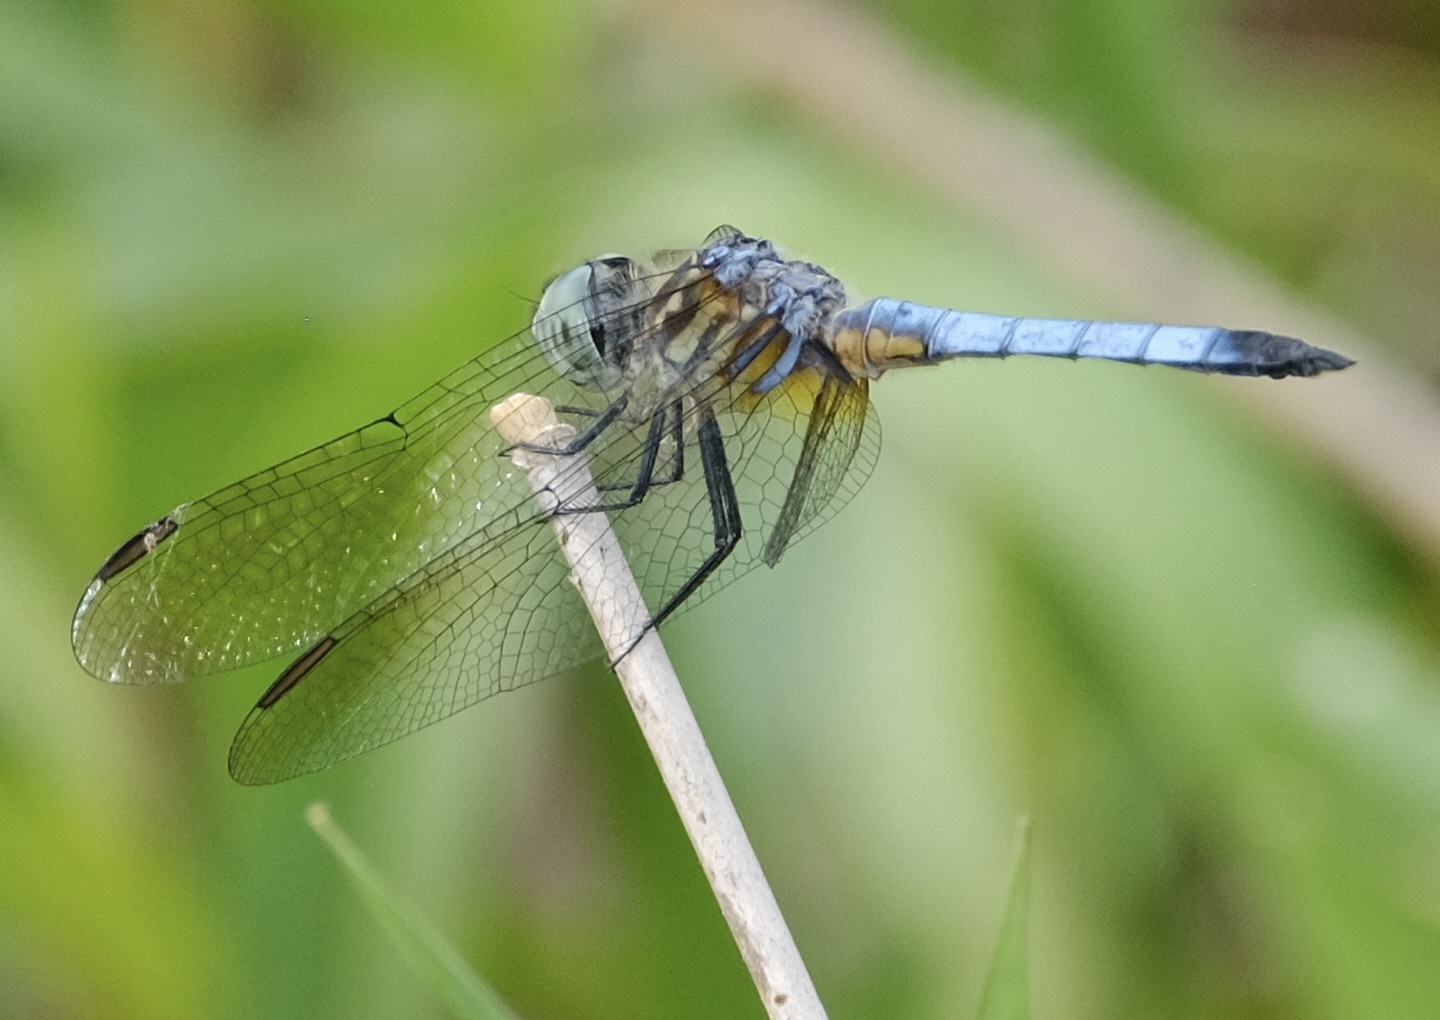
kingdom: Animalia
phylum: Arthropoda
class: Insecta
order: Odonata
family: Libellulidae
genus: Pachydiplax
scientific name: Pachydiplax longipennis
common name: Blue dasher
